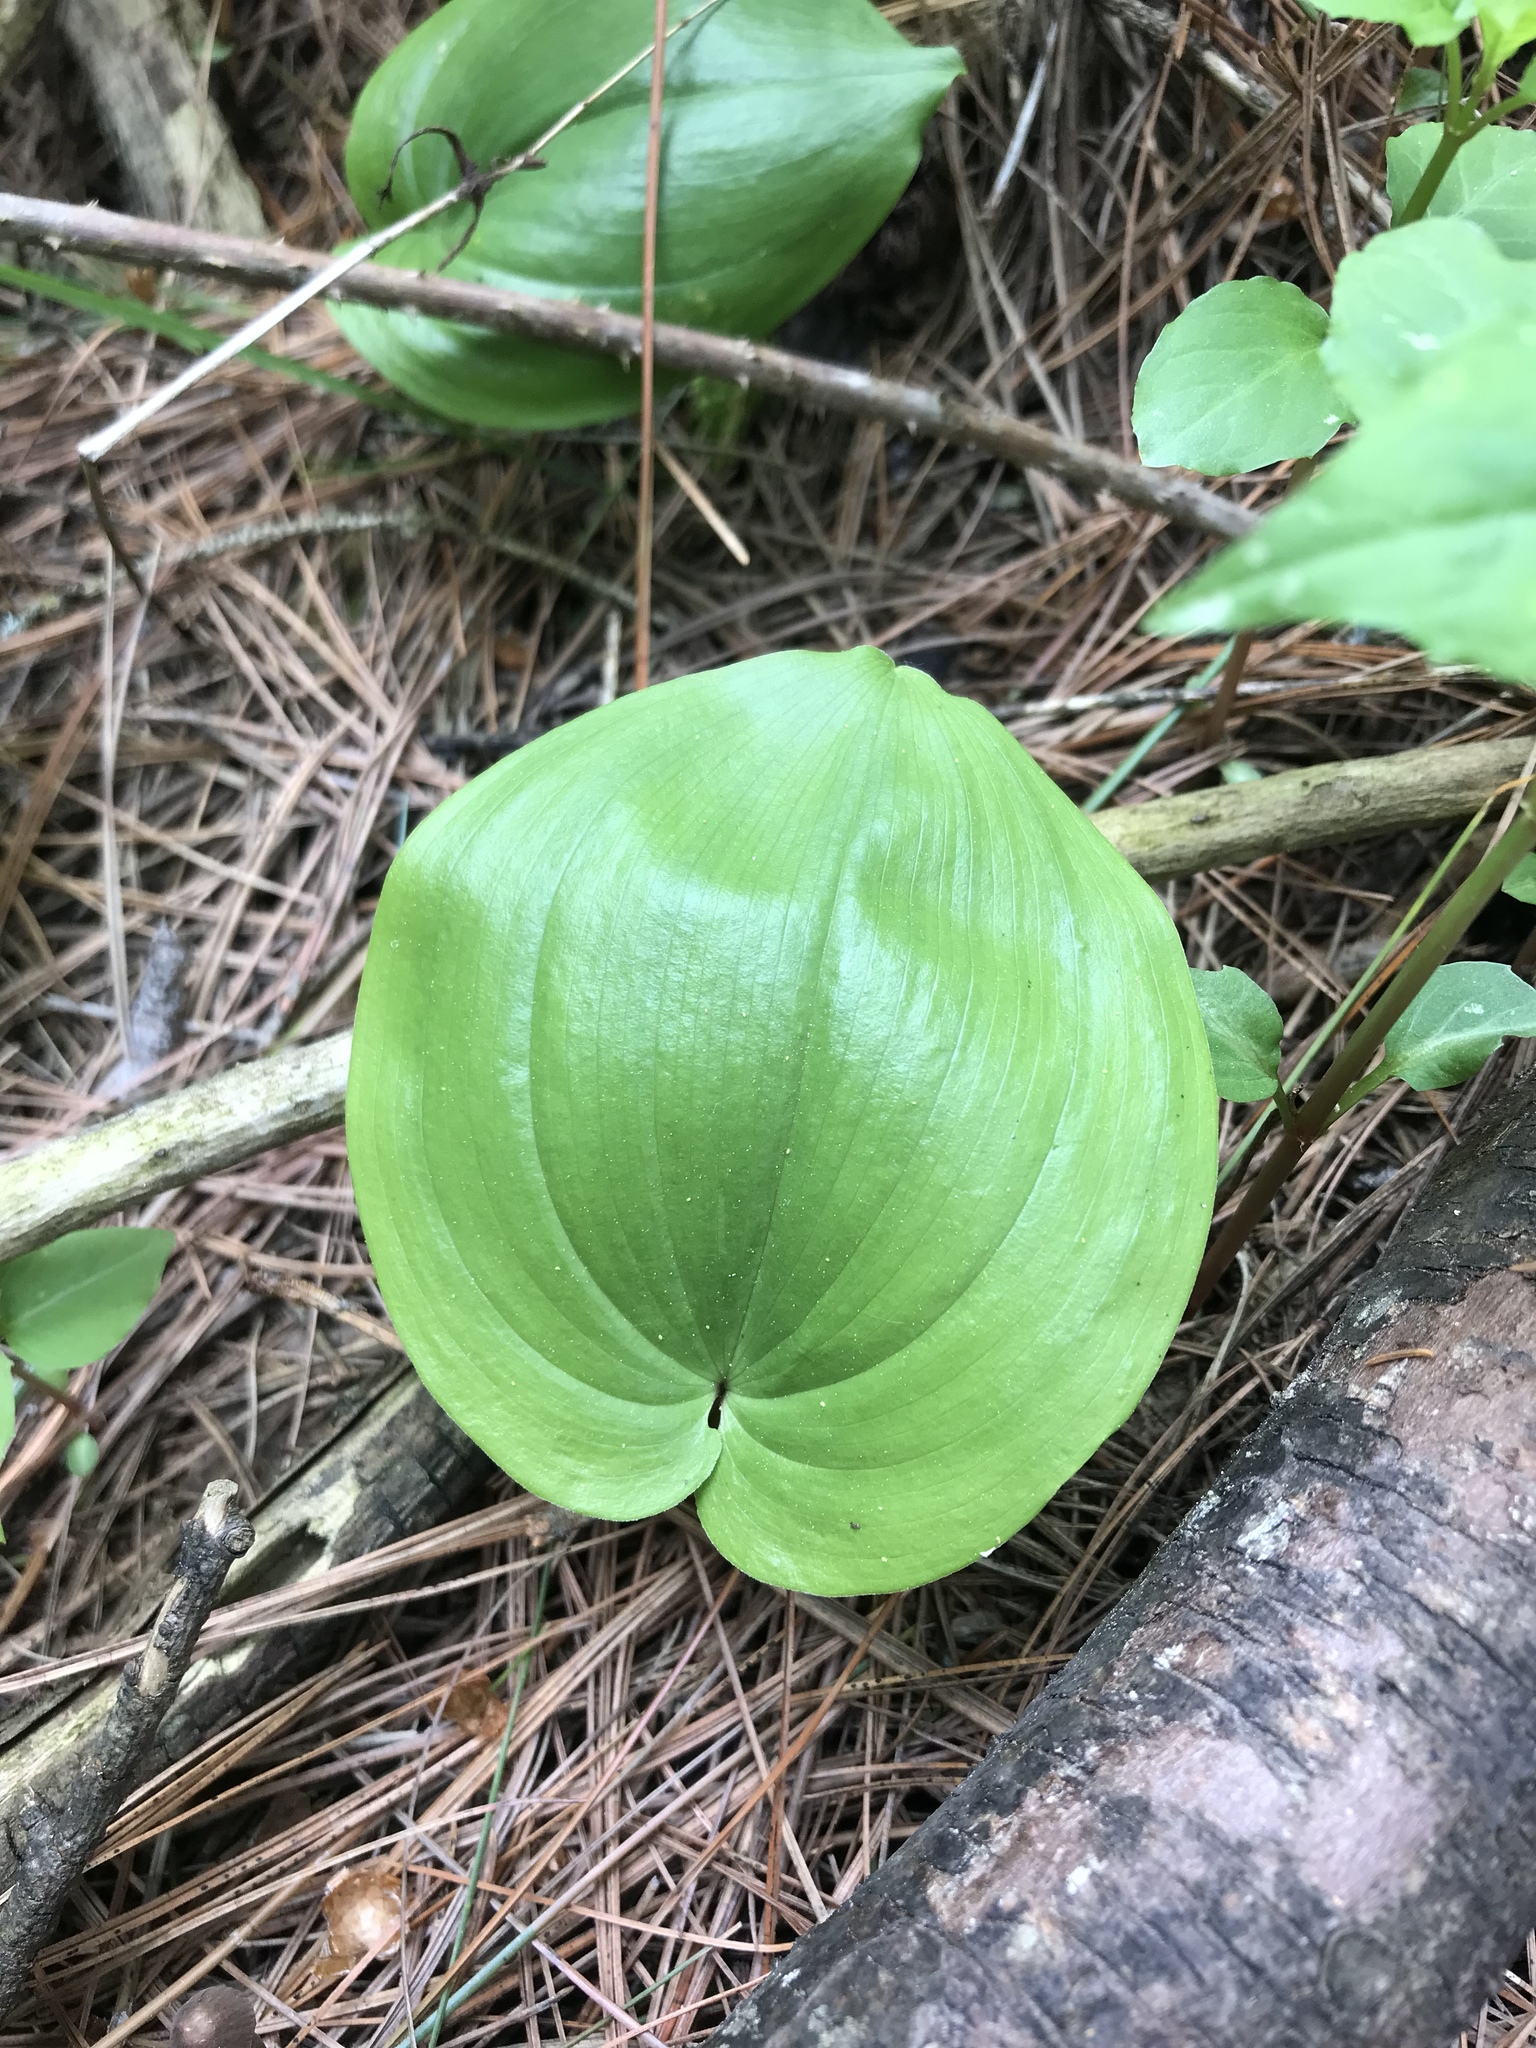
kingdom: Plantae
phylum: Tracheophyta
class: Liliopsida
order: Asparagales
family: Asparagaceae
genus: Maianthemum
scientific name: Maianthemum canadense
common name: False lily-of-the-valley
